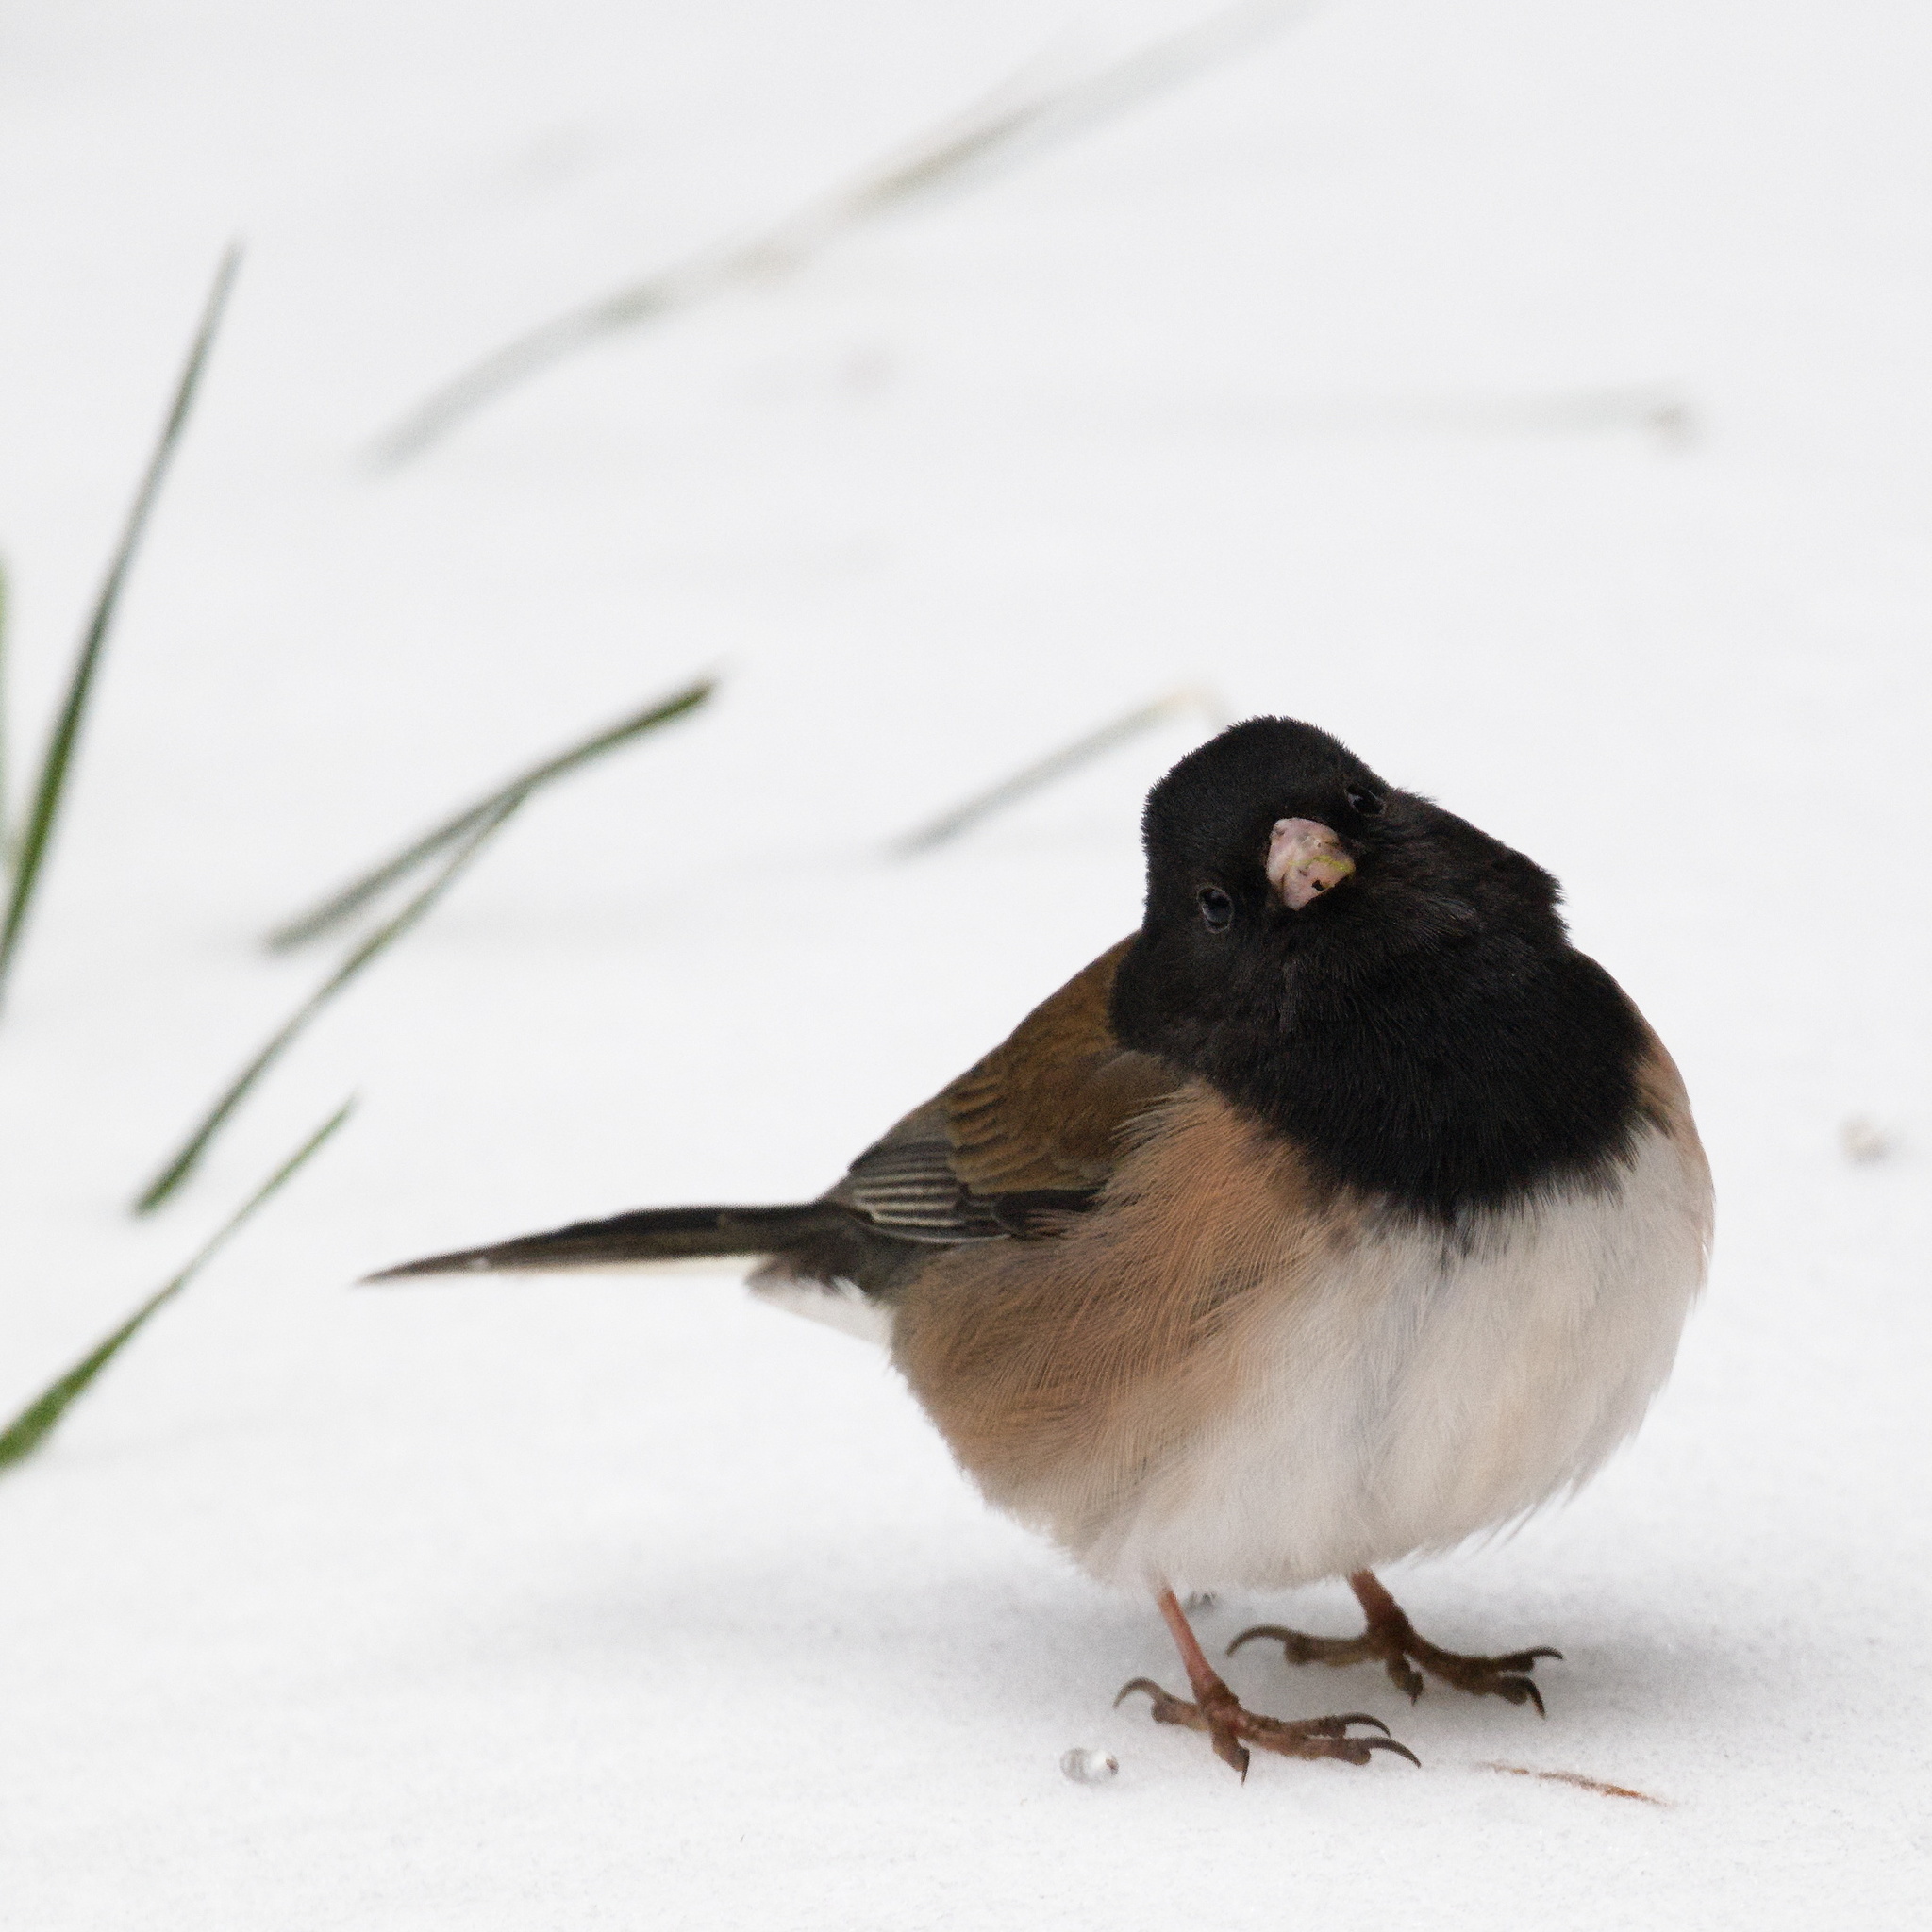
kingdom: Animalia
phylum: Chordata
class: Aves
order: Passeriformes
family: Passerellidae
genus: Junco
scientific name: Junco hyemalis
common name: Dark-eyed junco
